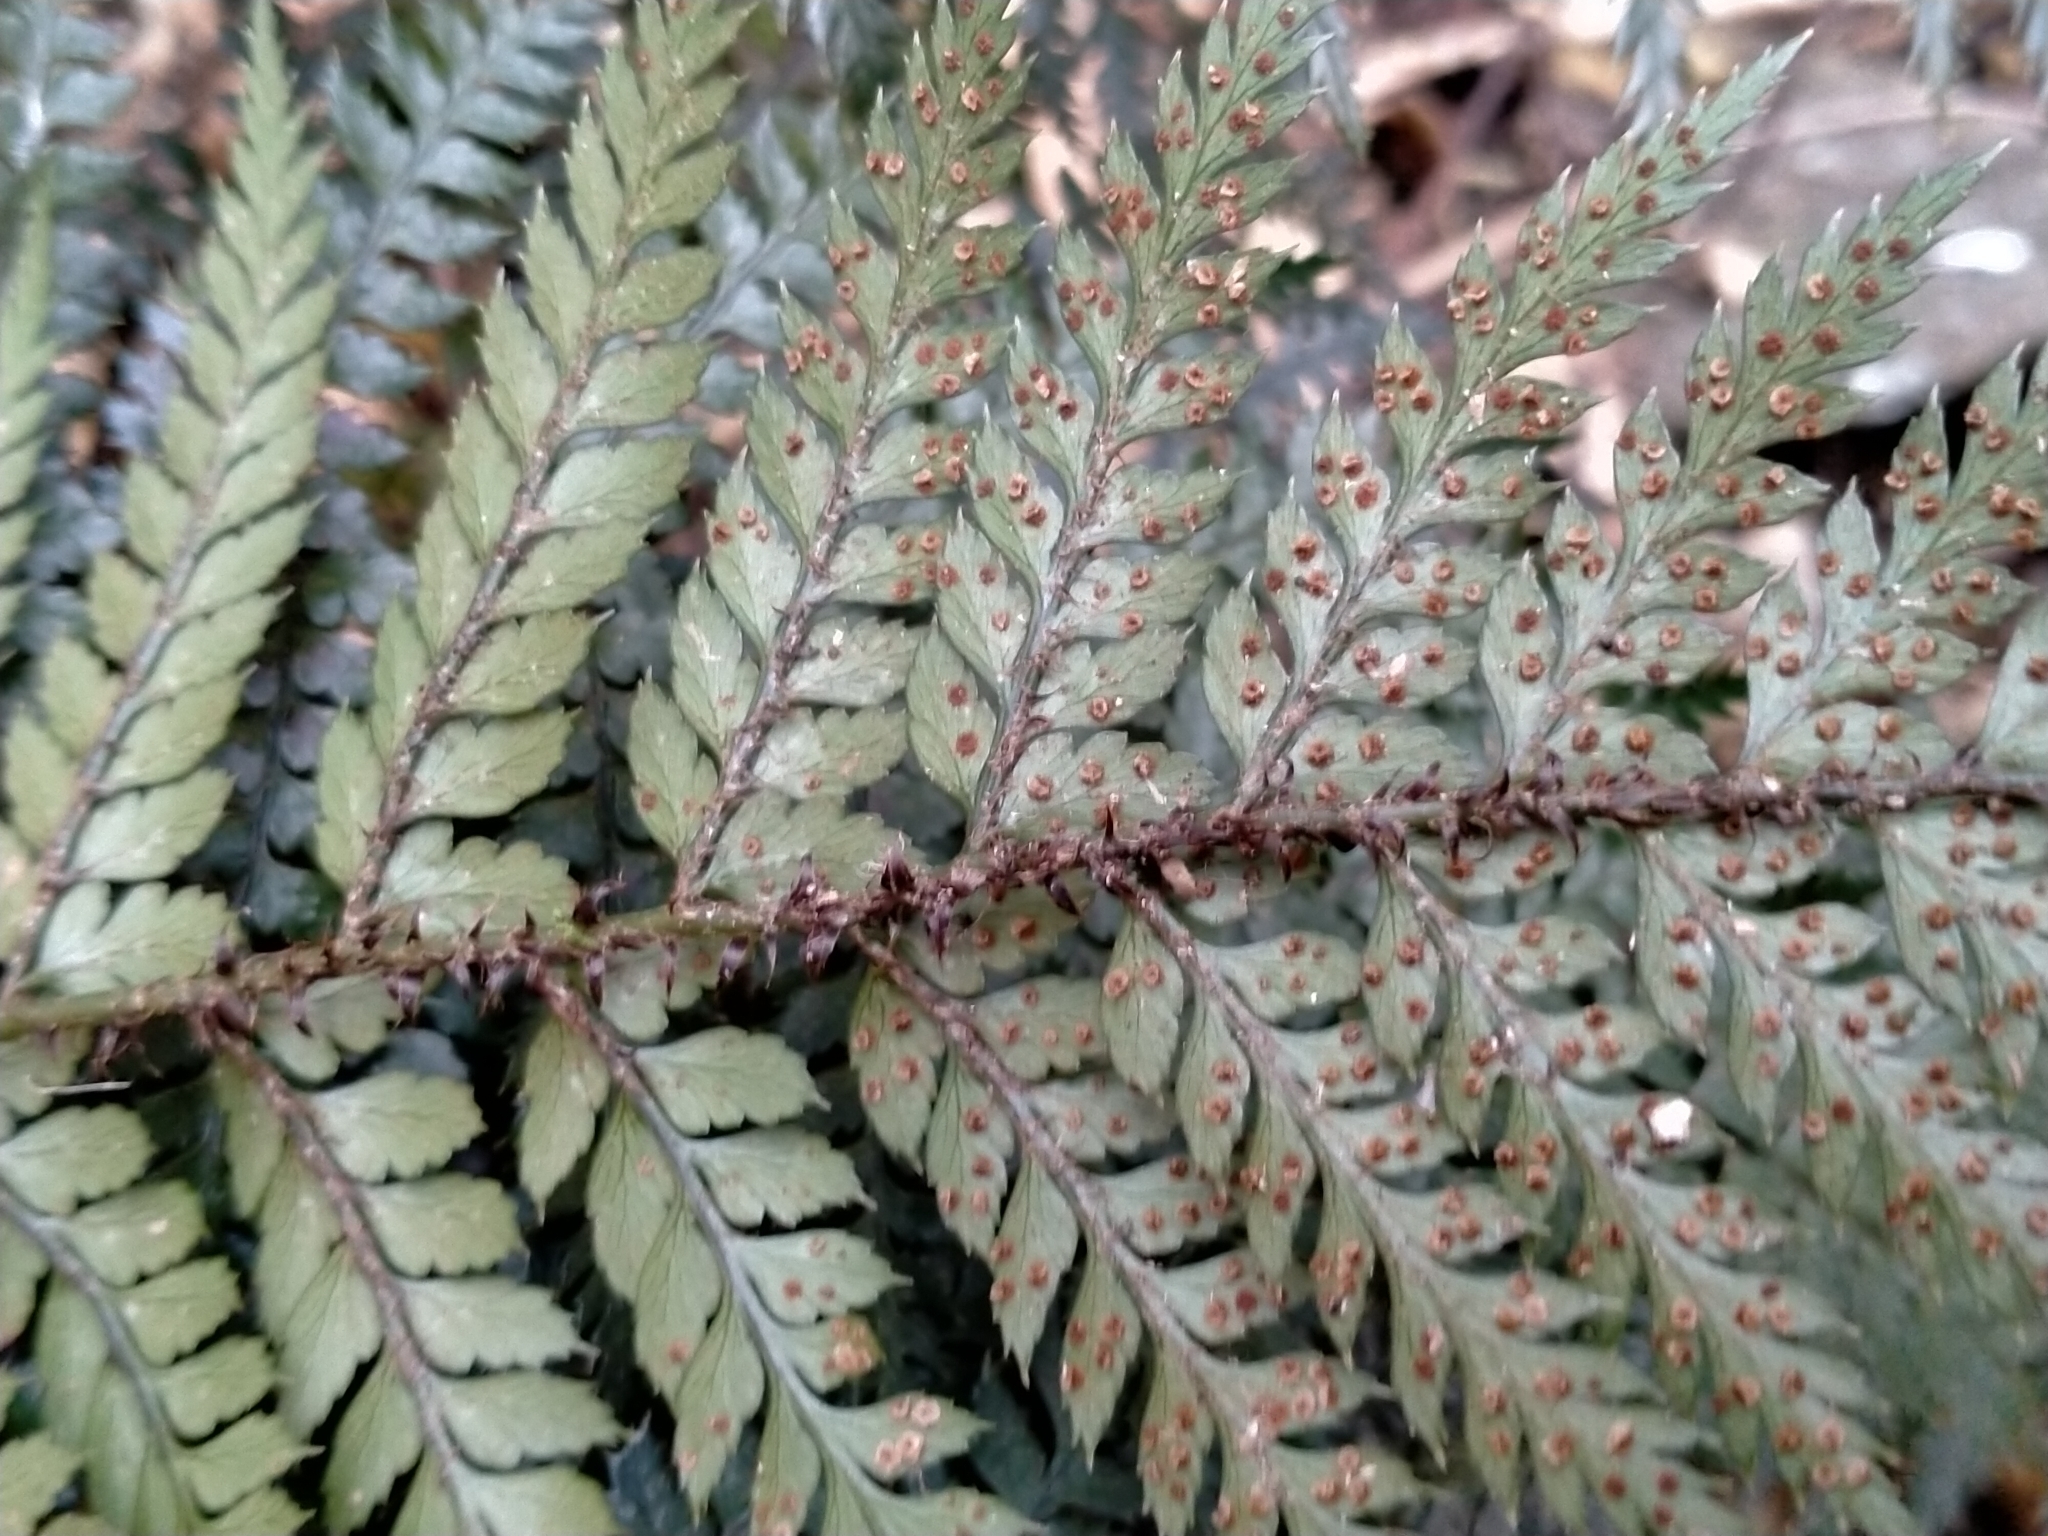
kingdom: Plantae
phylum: Tracheophyta
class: Polypodiopsida
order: Polypodiales
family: Dryopteridaceae
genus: Polystichum
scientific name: Polystichum neozelandicum
